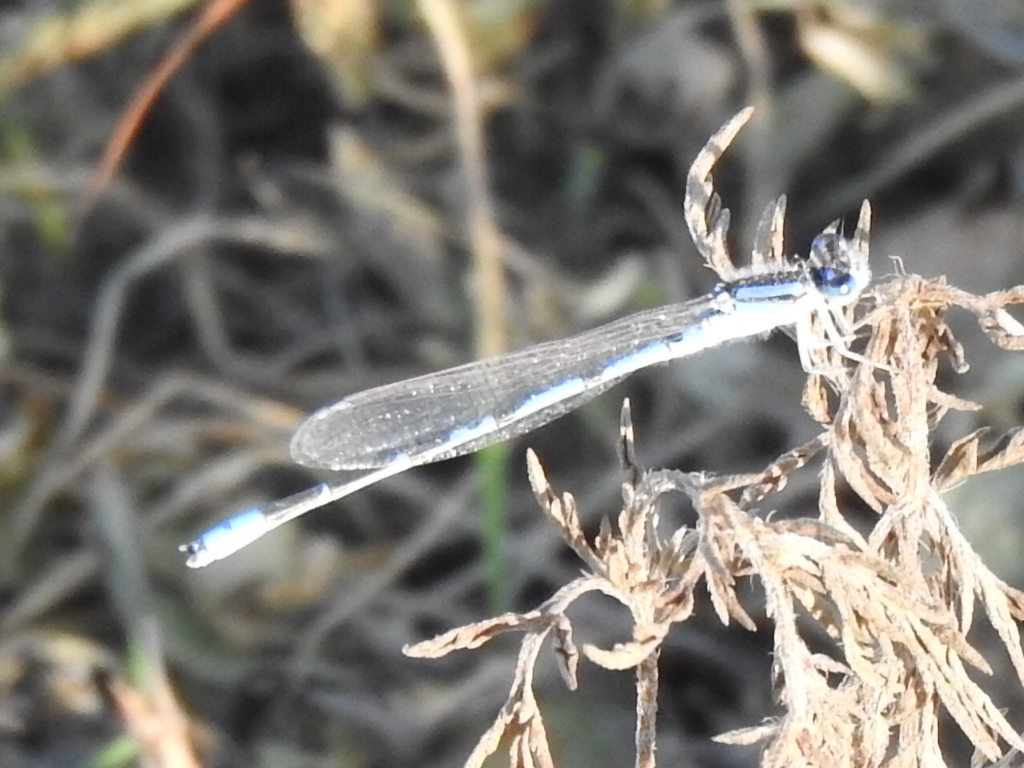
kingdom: Animalia
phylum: Arthropoda
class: Insecta
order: Odonata
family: Coenagrionidae
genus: Enallagma
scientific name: Enallagma civile
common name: Damselfly
